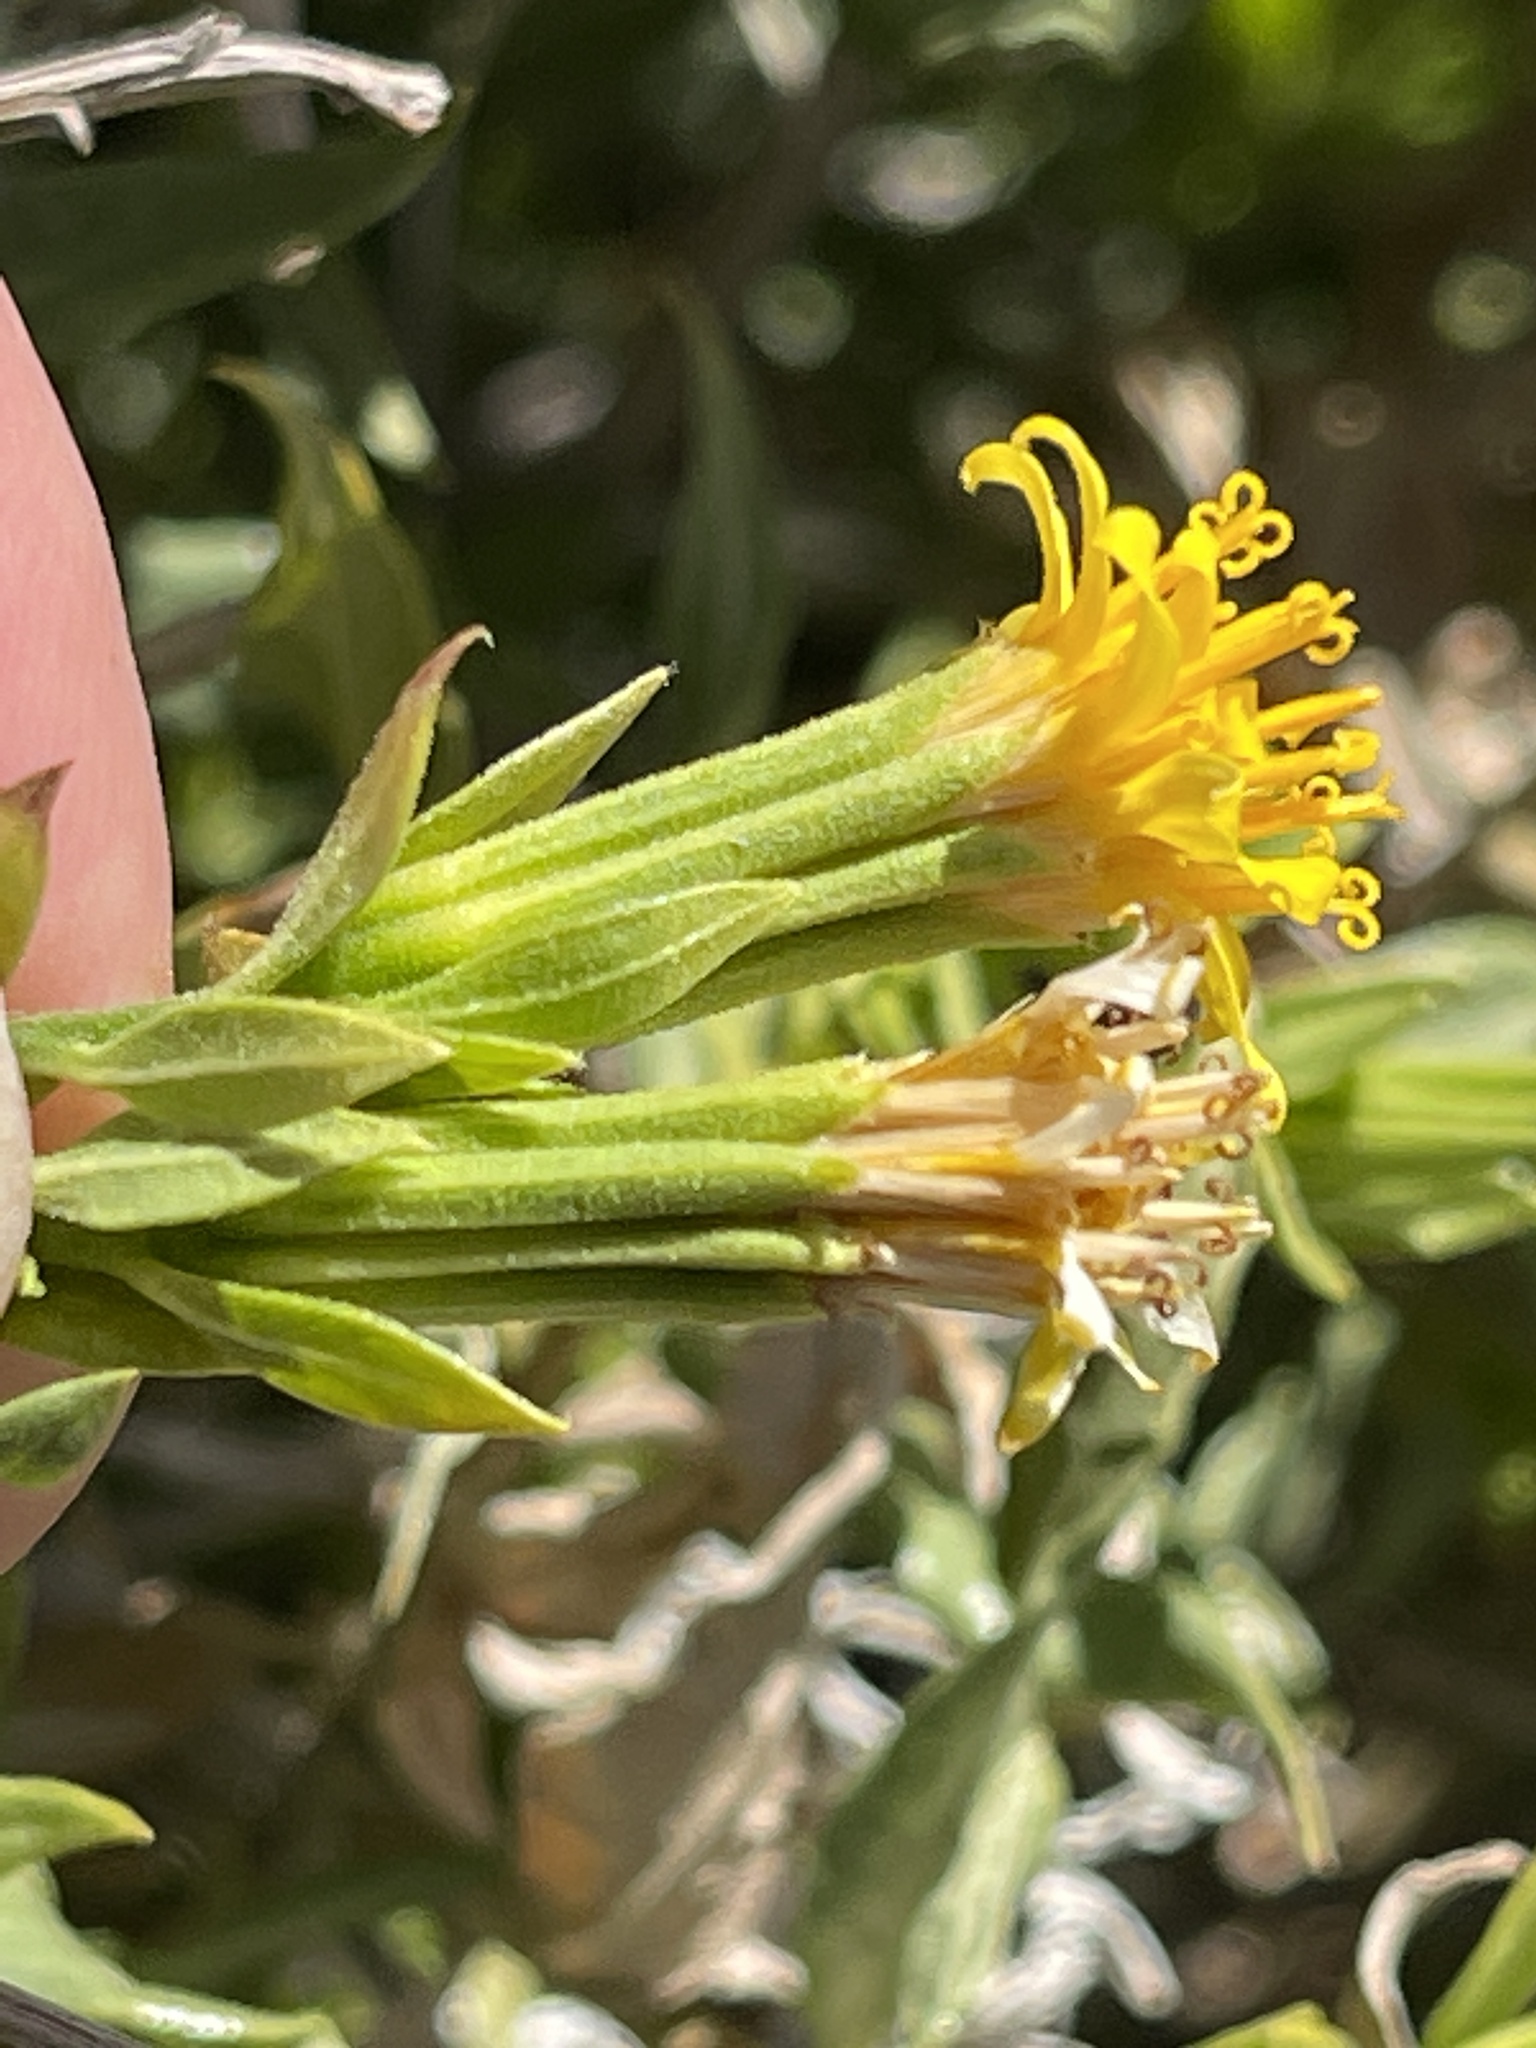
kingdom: Plantae
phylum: Tracheophyta
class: Magnoliopsida
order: Asterales
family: Asteraceae
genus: Trixis
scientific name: Trixis californica
